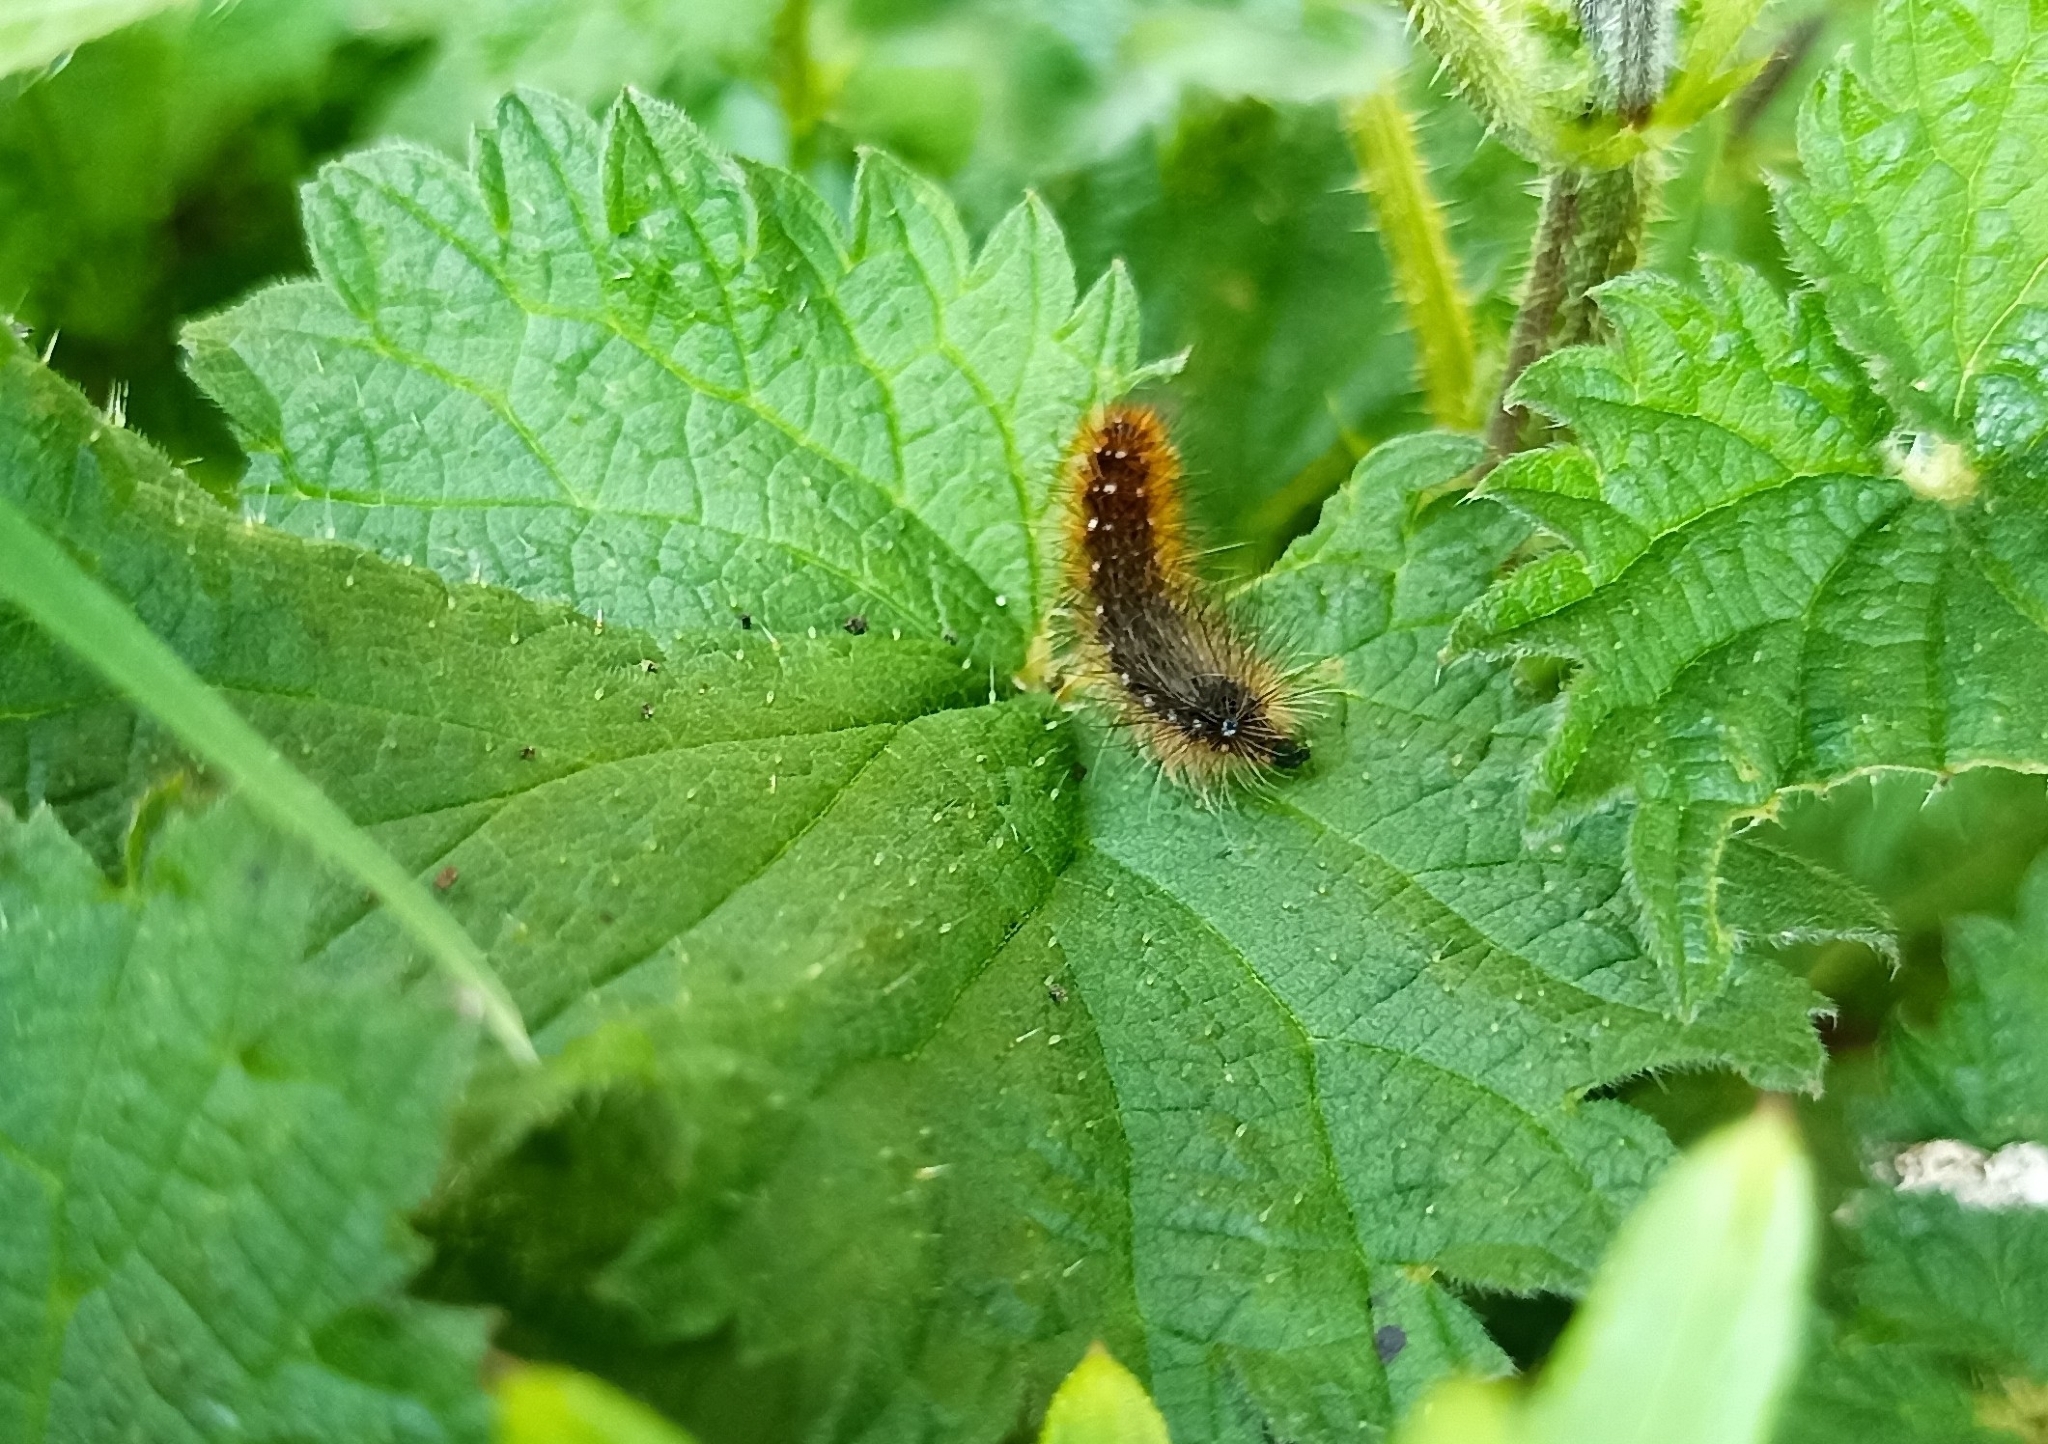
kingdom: Animalia
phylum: Arthropoda
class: Insecta
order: Lepidoptera
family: Erebidae
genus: Arctia
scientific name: Arctia caja
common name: Garden tiger
